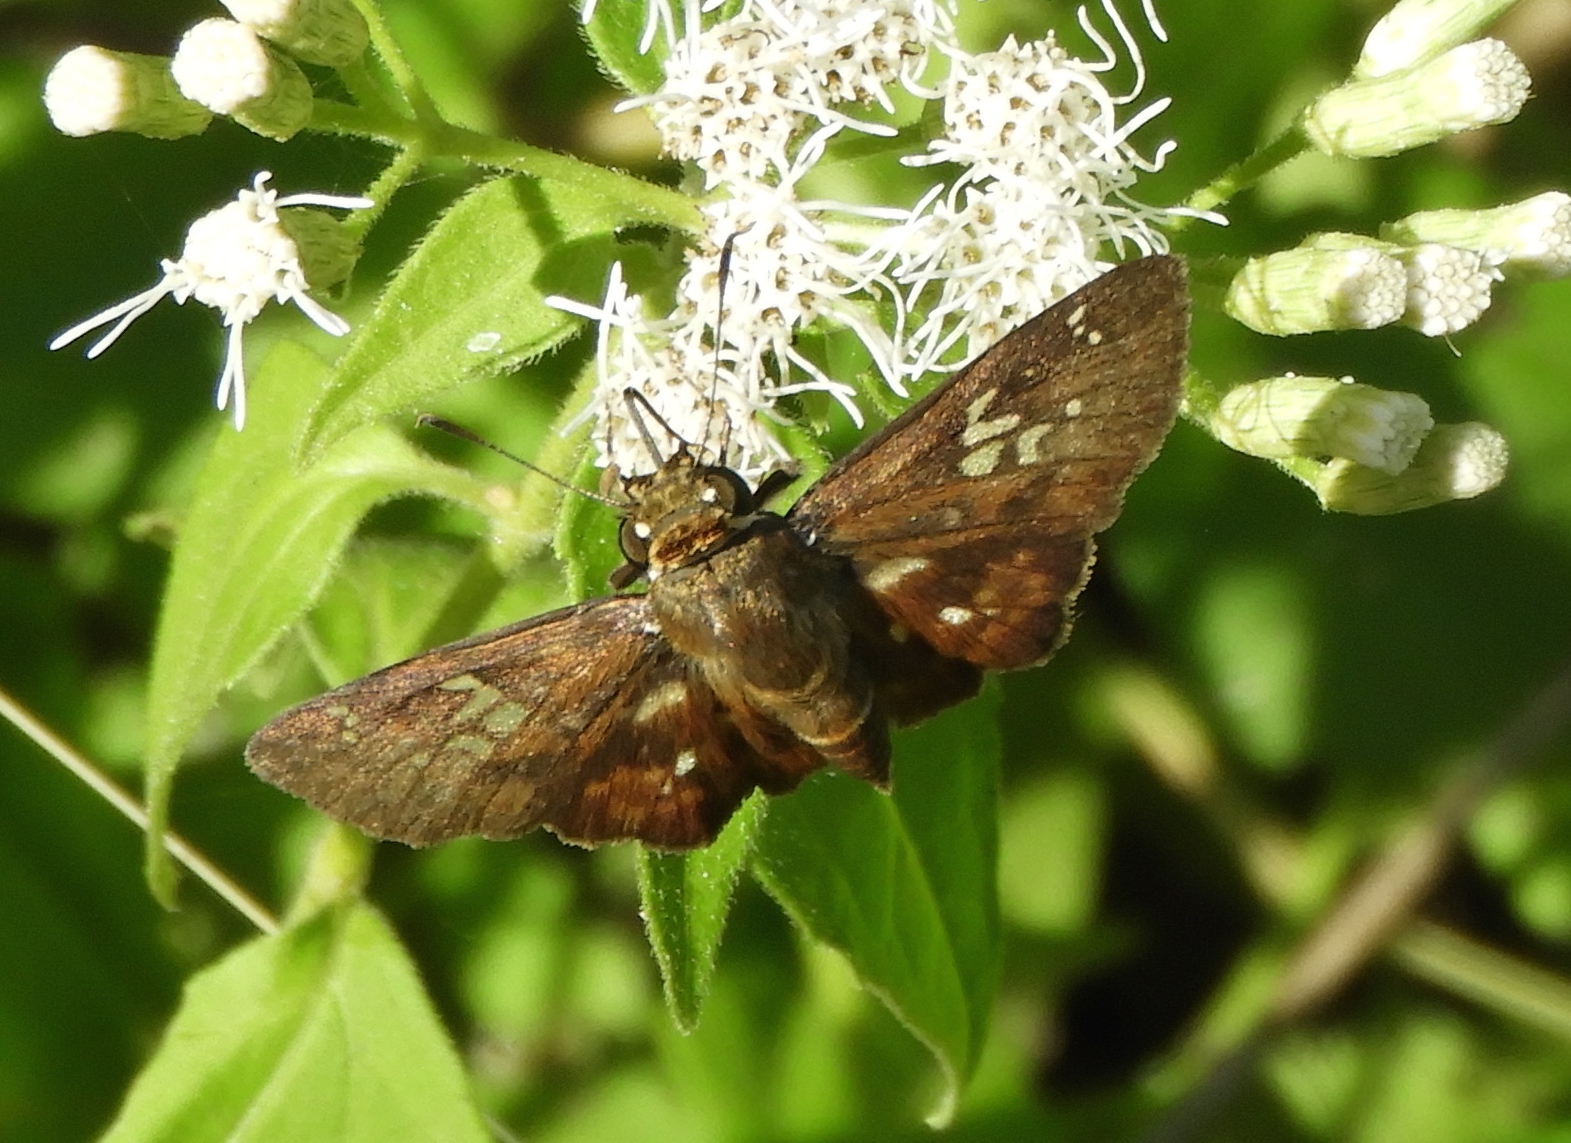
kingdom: Animalia
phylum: Arthropoda
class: Insecta
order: Lepidoptera
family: Hesperiidae
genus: Udranomia
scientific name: Udranomia kikkawai
